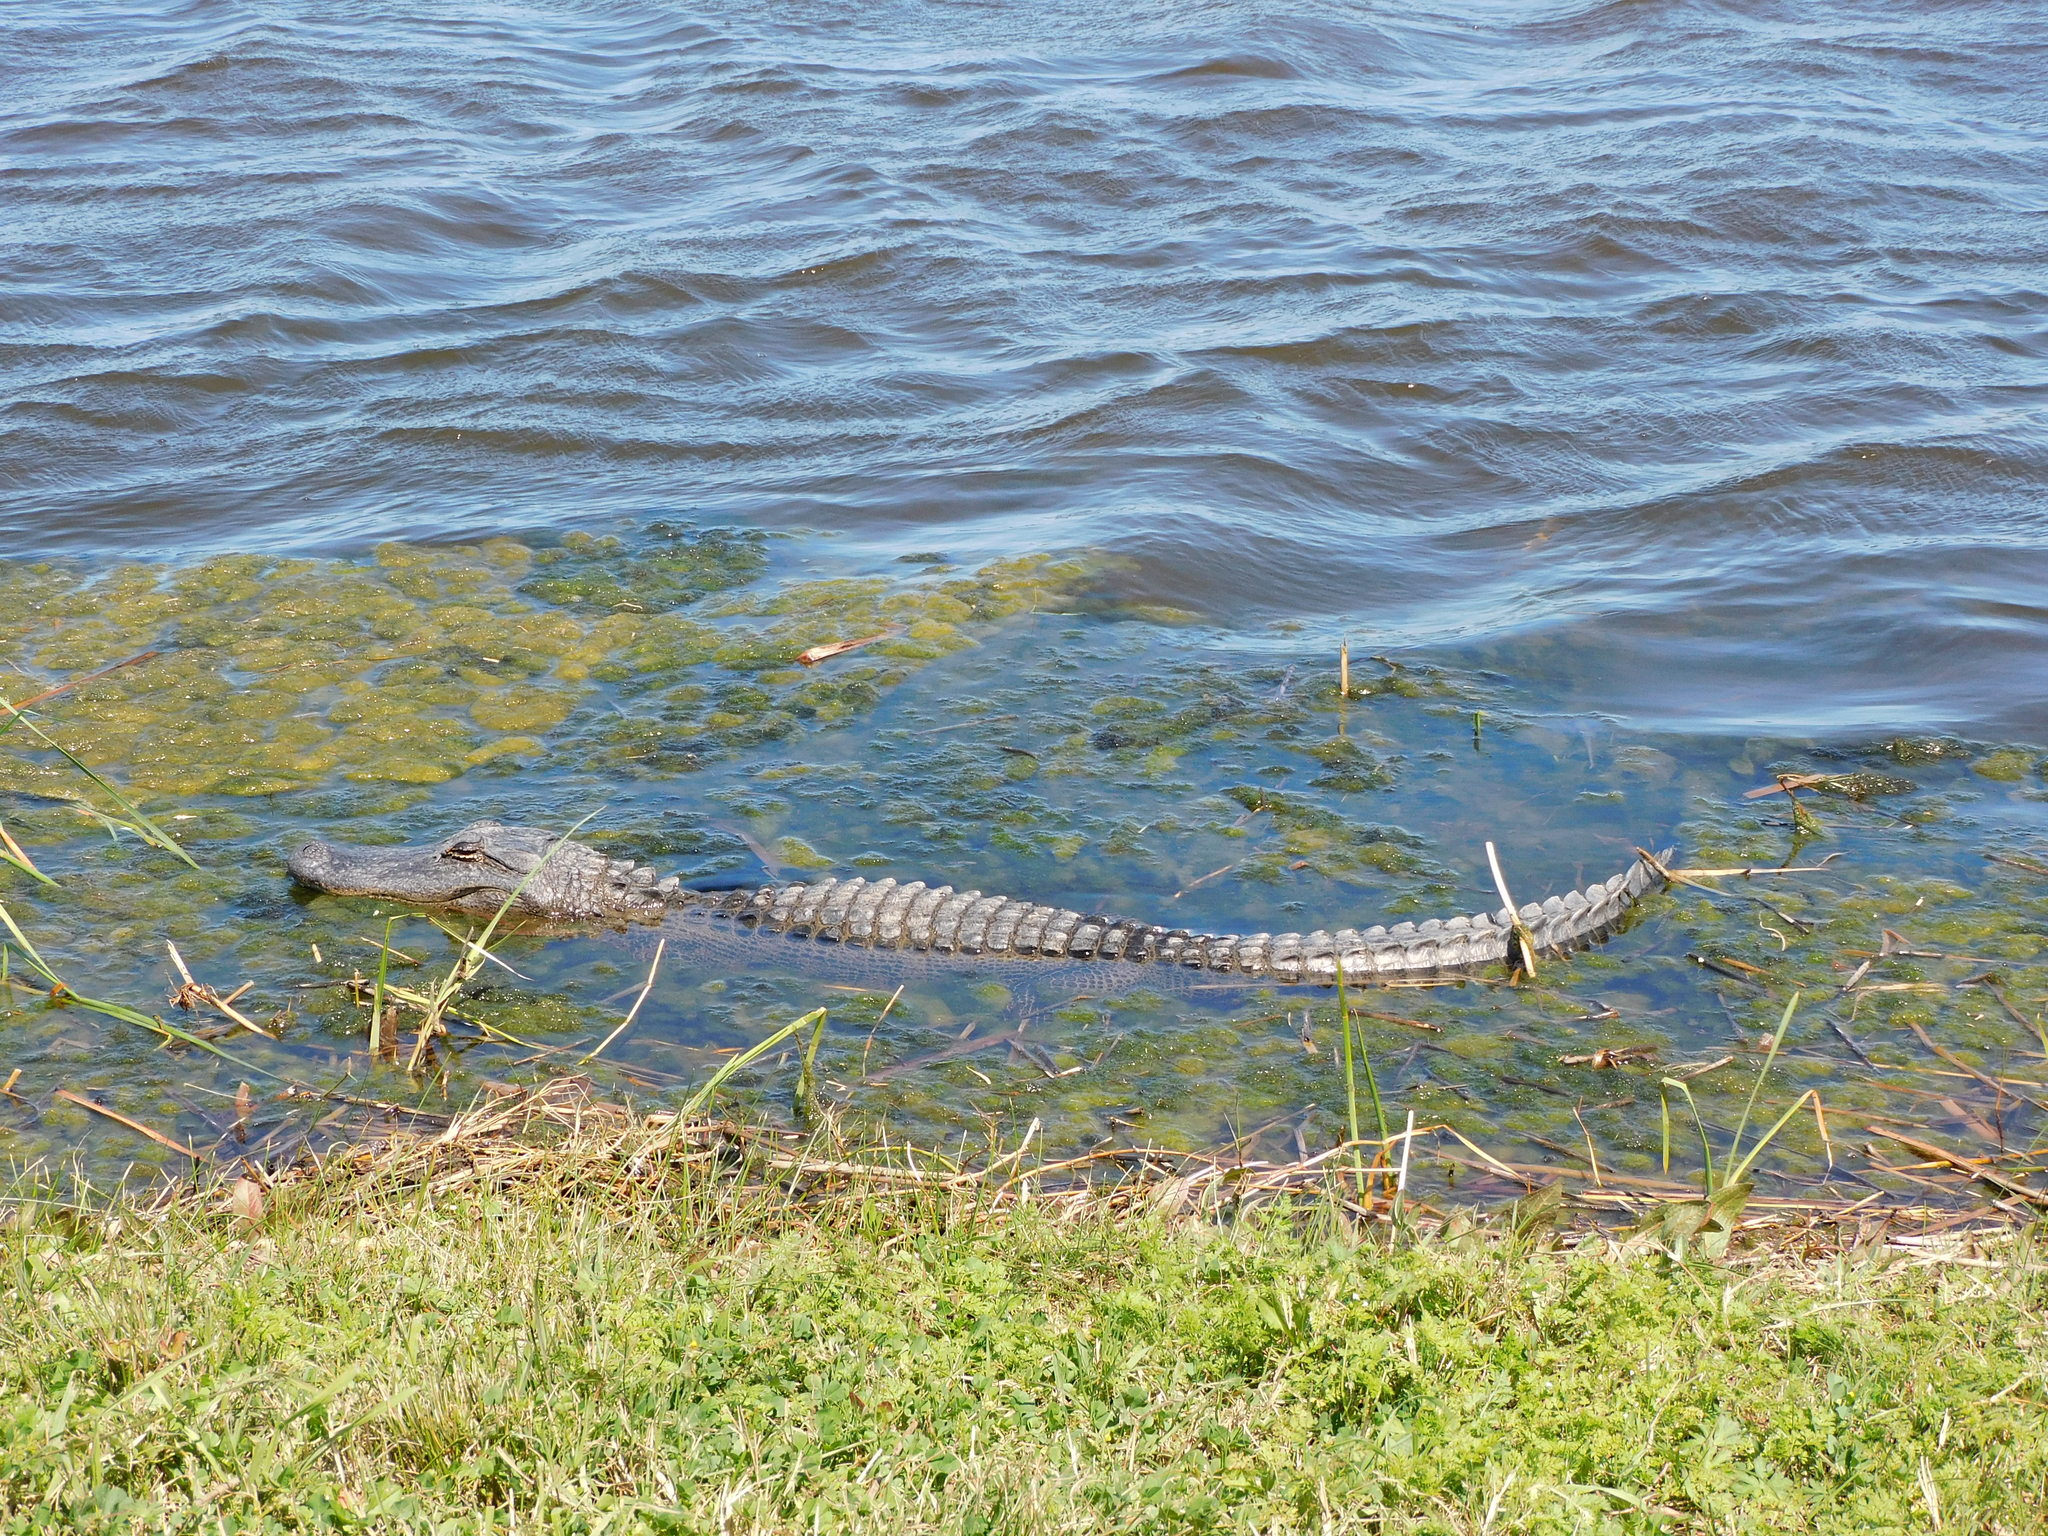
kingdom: Animalia
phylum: Chordata
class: Crocodylia
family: Alligatoridae
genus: Alligator
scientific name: Alligator mississippiensis
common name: American alligator
